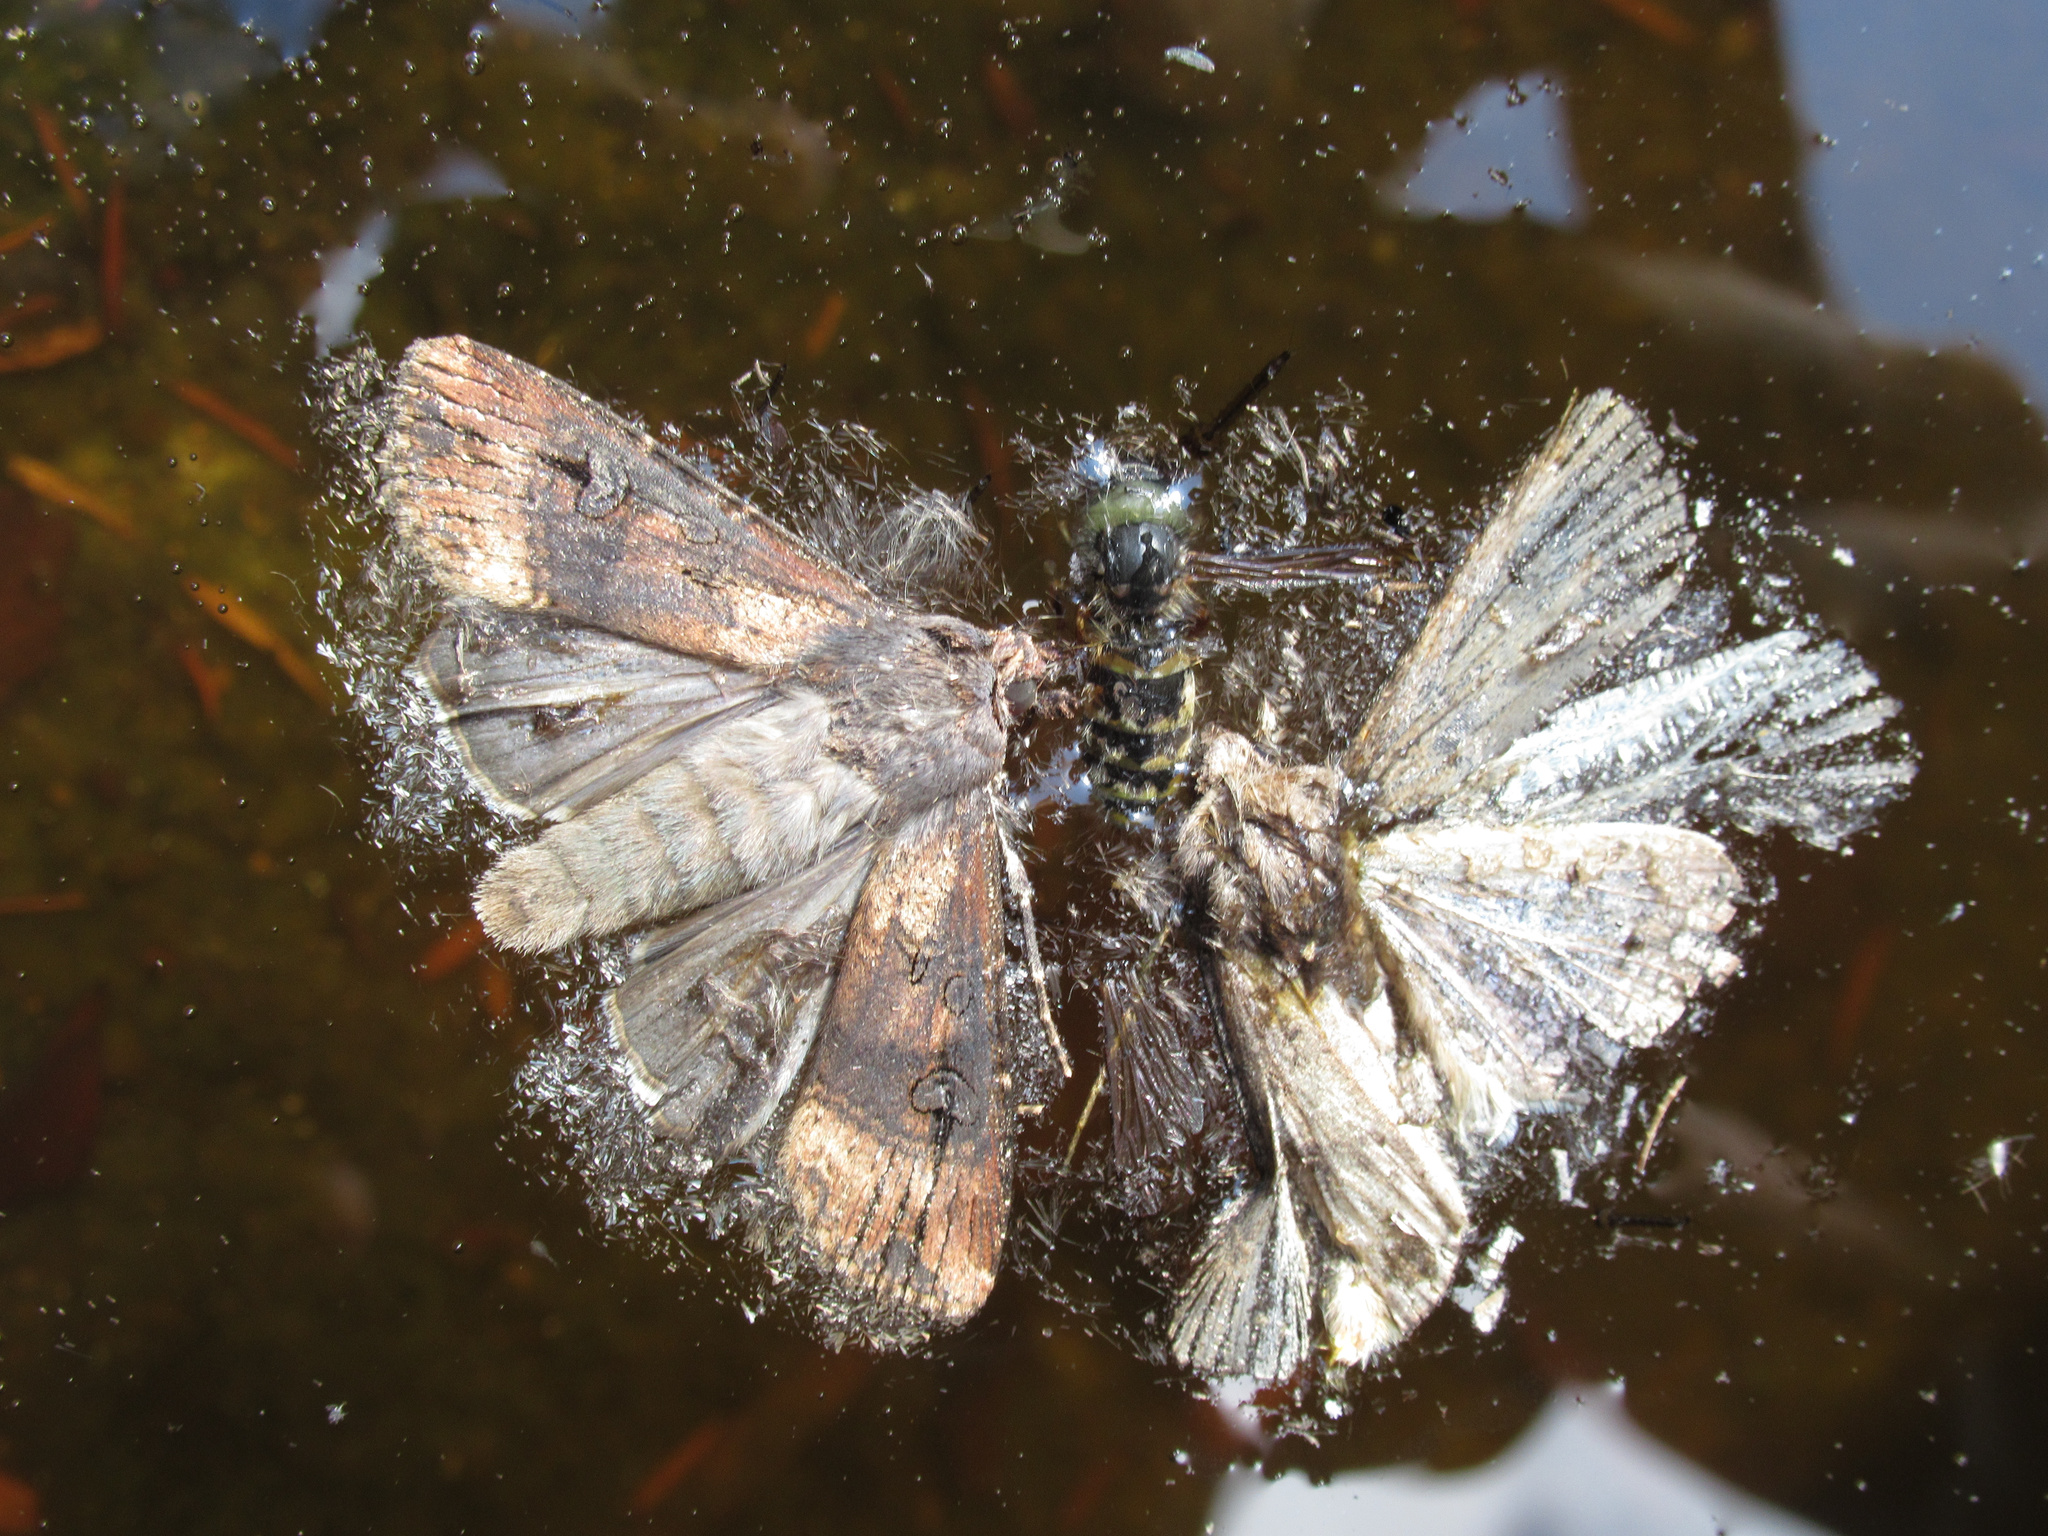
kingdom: Animalia
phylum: Arthropoda
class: Insecta
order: Lepidoptera
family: Noctuidae
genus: Agrotis
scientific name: Agrotis ipsilon
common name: Dark sword-grass
